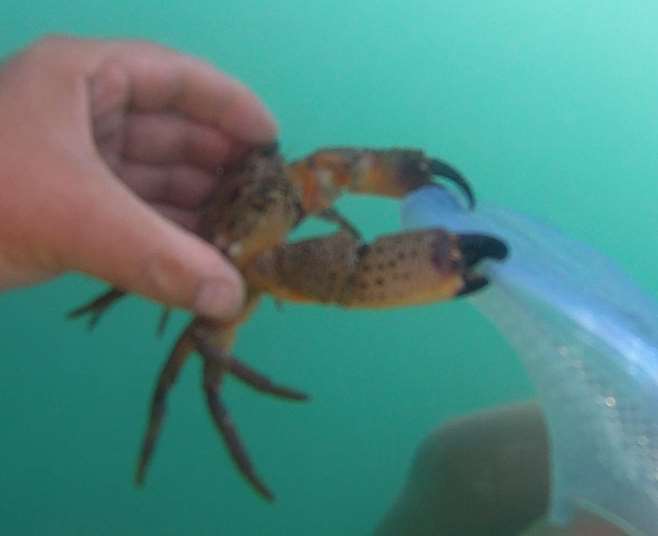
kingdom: Animalia
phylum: Arthropoda
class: Malacostraca
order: Decapoda
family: Eriphiidae
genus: Eriphia
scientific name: Eriphia verrucosa
